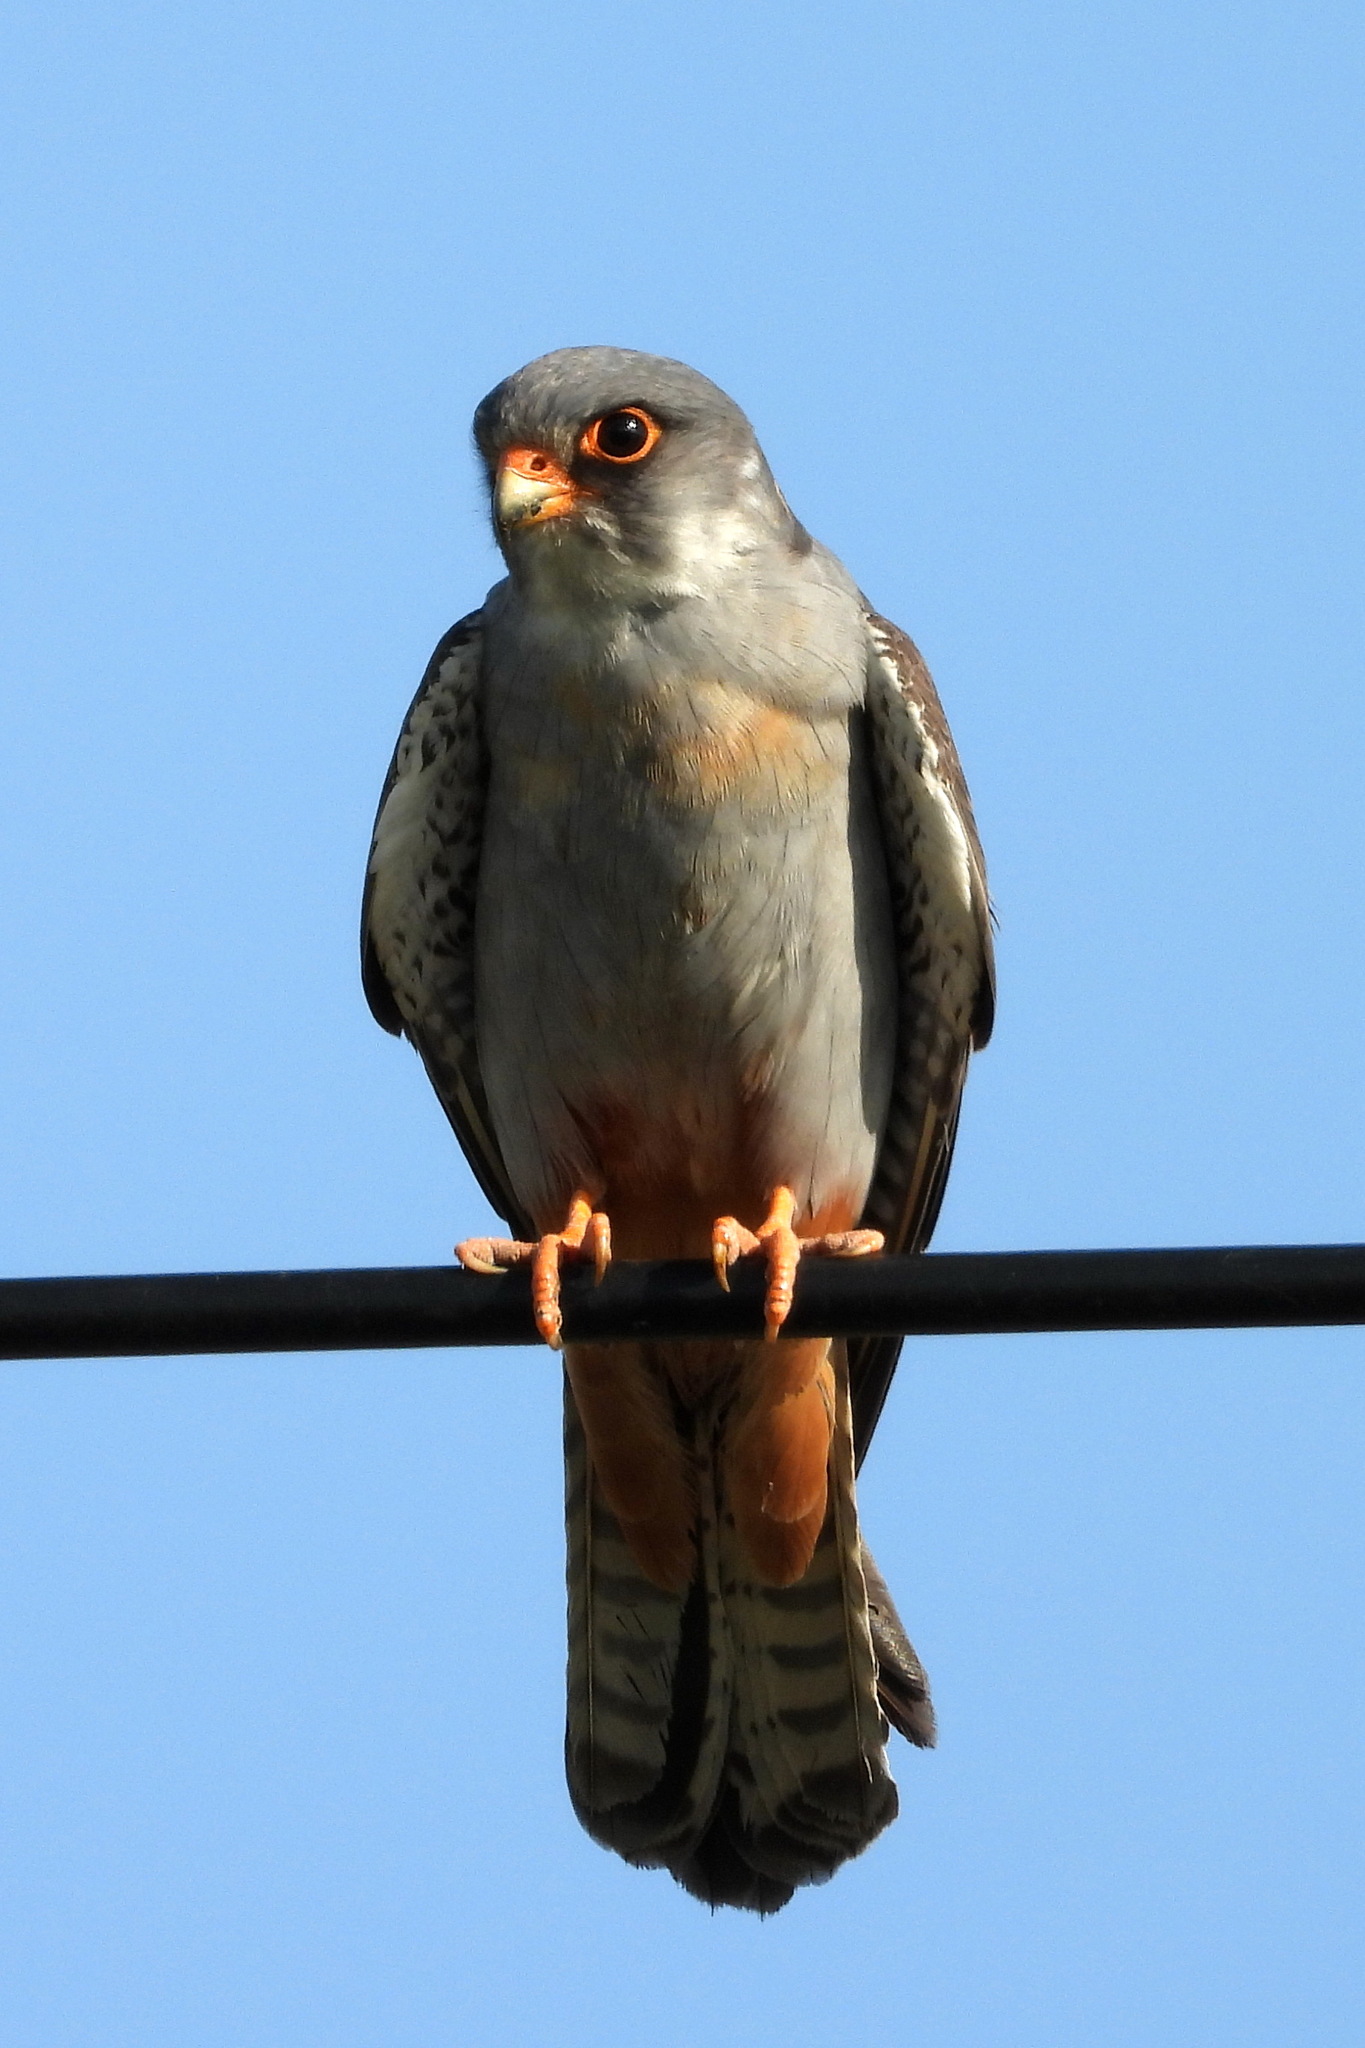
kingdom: Animalia
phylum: Chordata
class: Aves
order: Falconiformes
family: Falconidae
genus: Falco
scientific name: Falco vespertinus
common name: Red-footed falcon
